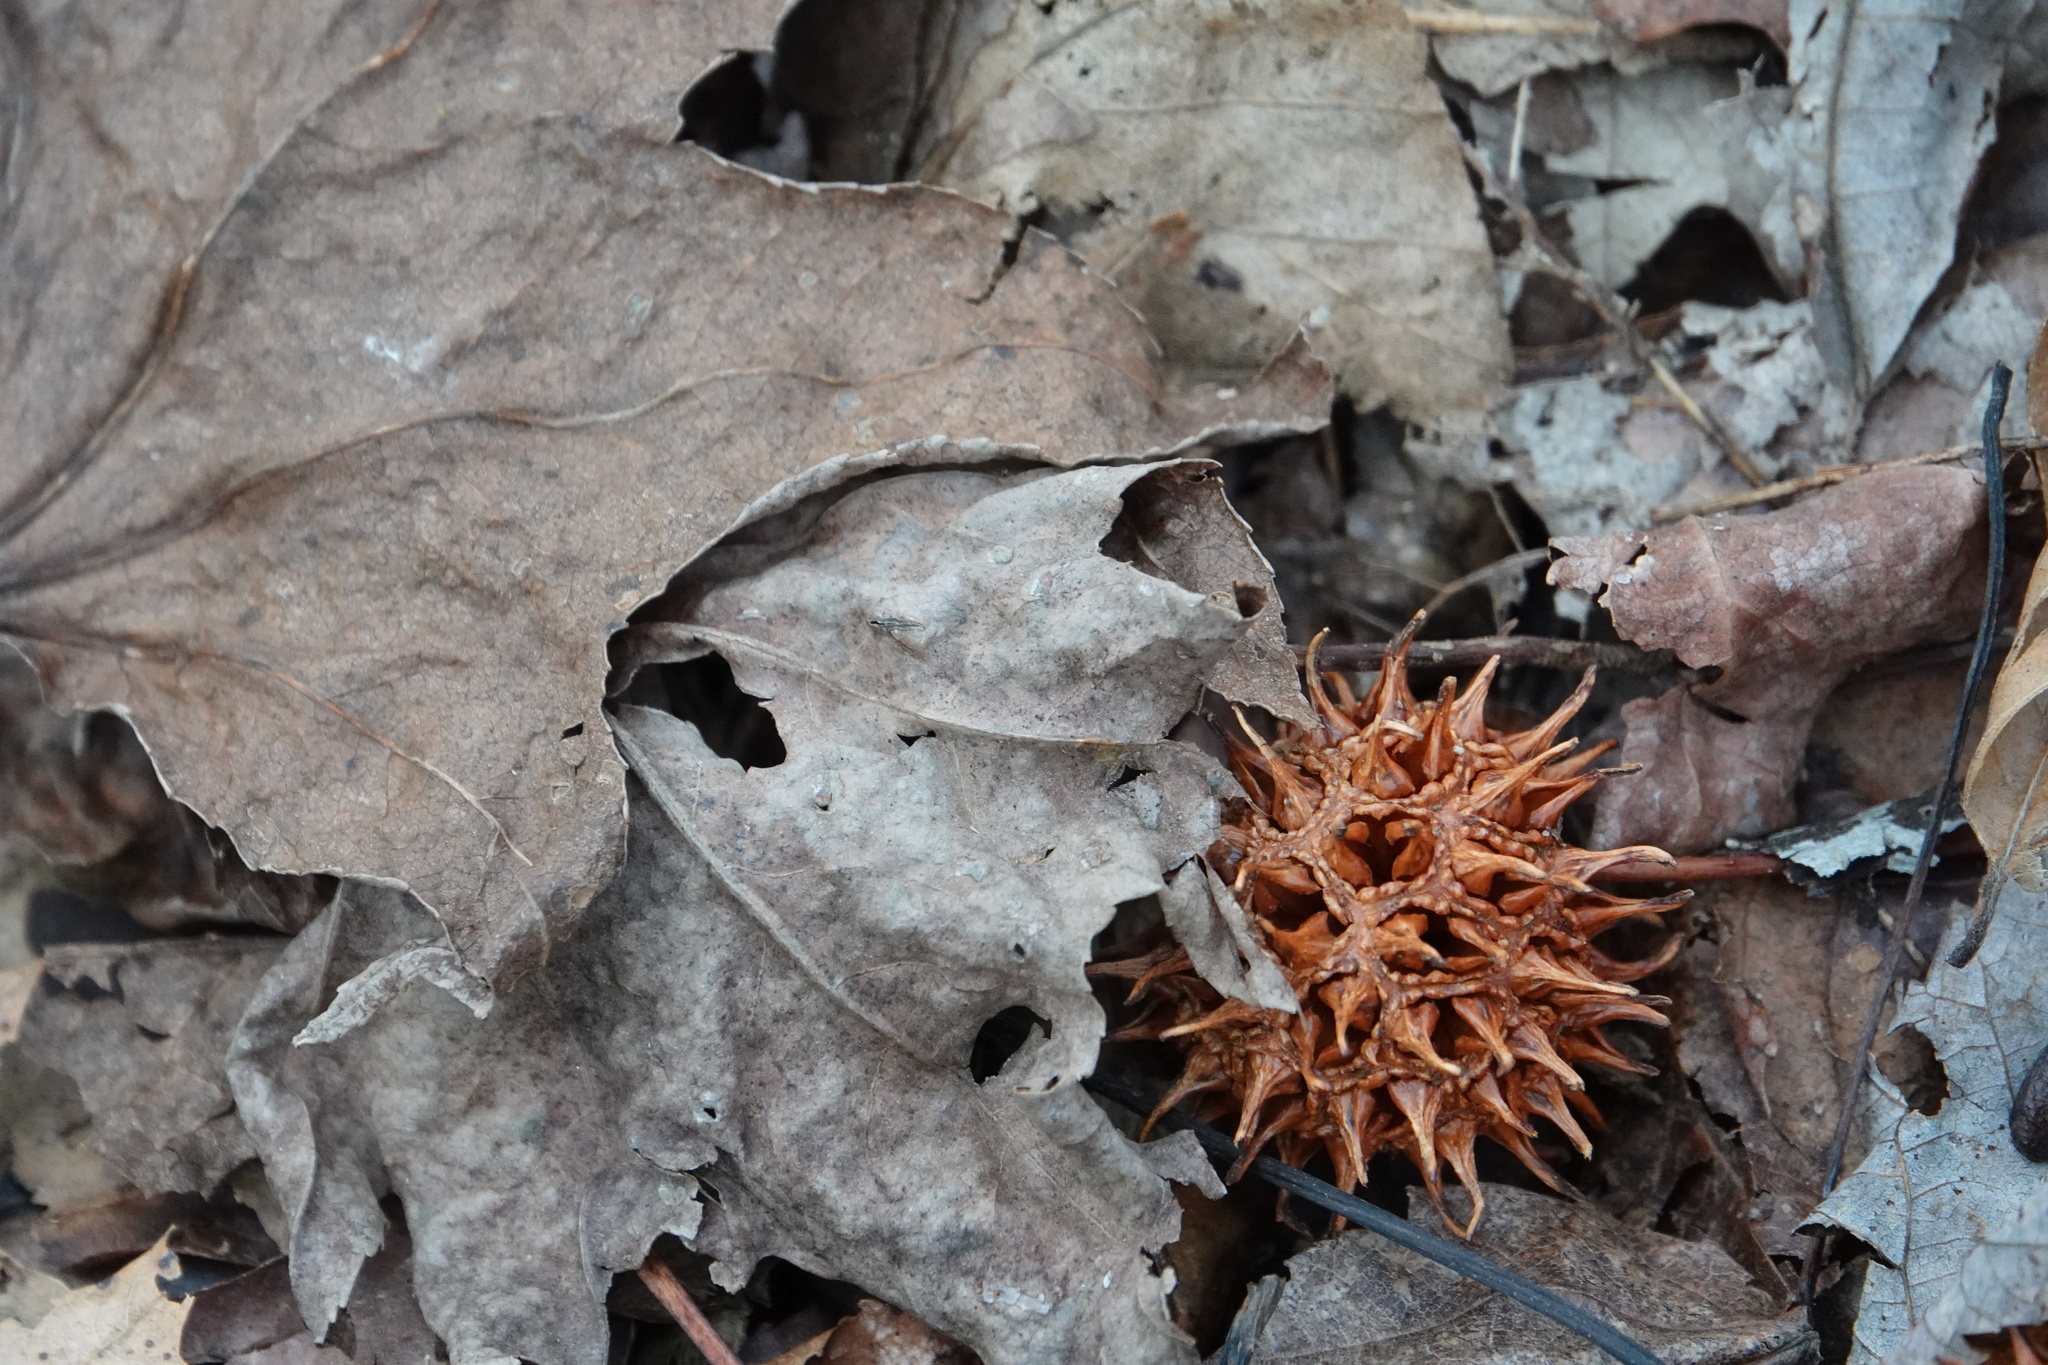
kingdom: Plantae
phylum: Tracheophyta
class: Magnoliopsida
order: Saxifragales
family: Altingiaceae
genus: Liquidambar
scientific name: Liquidambar styraciflua
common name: Sweet gum
